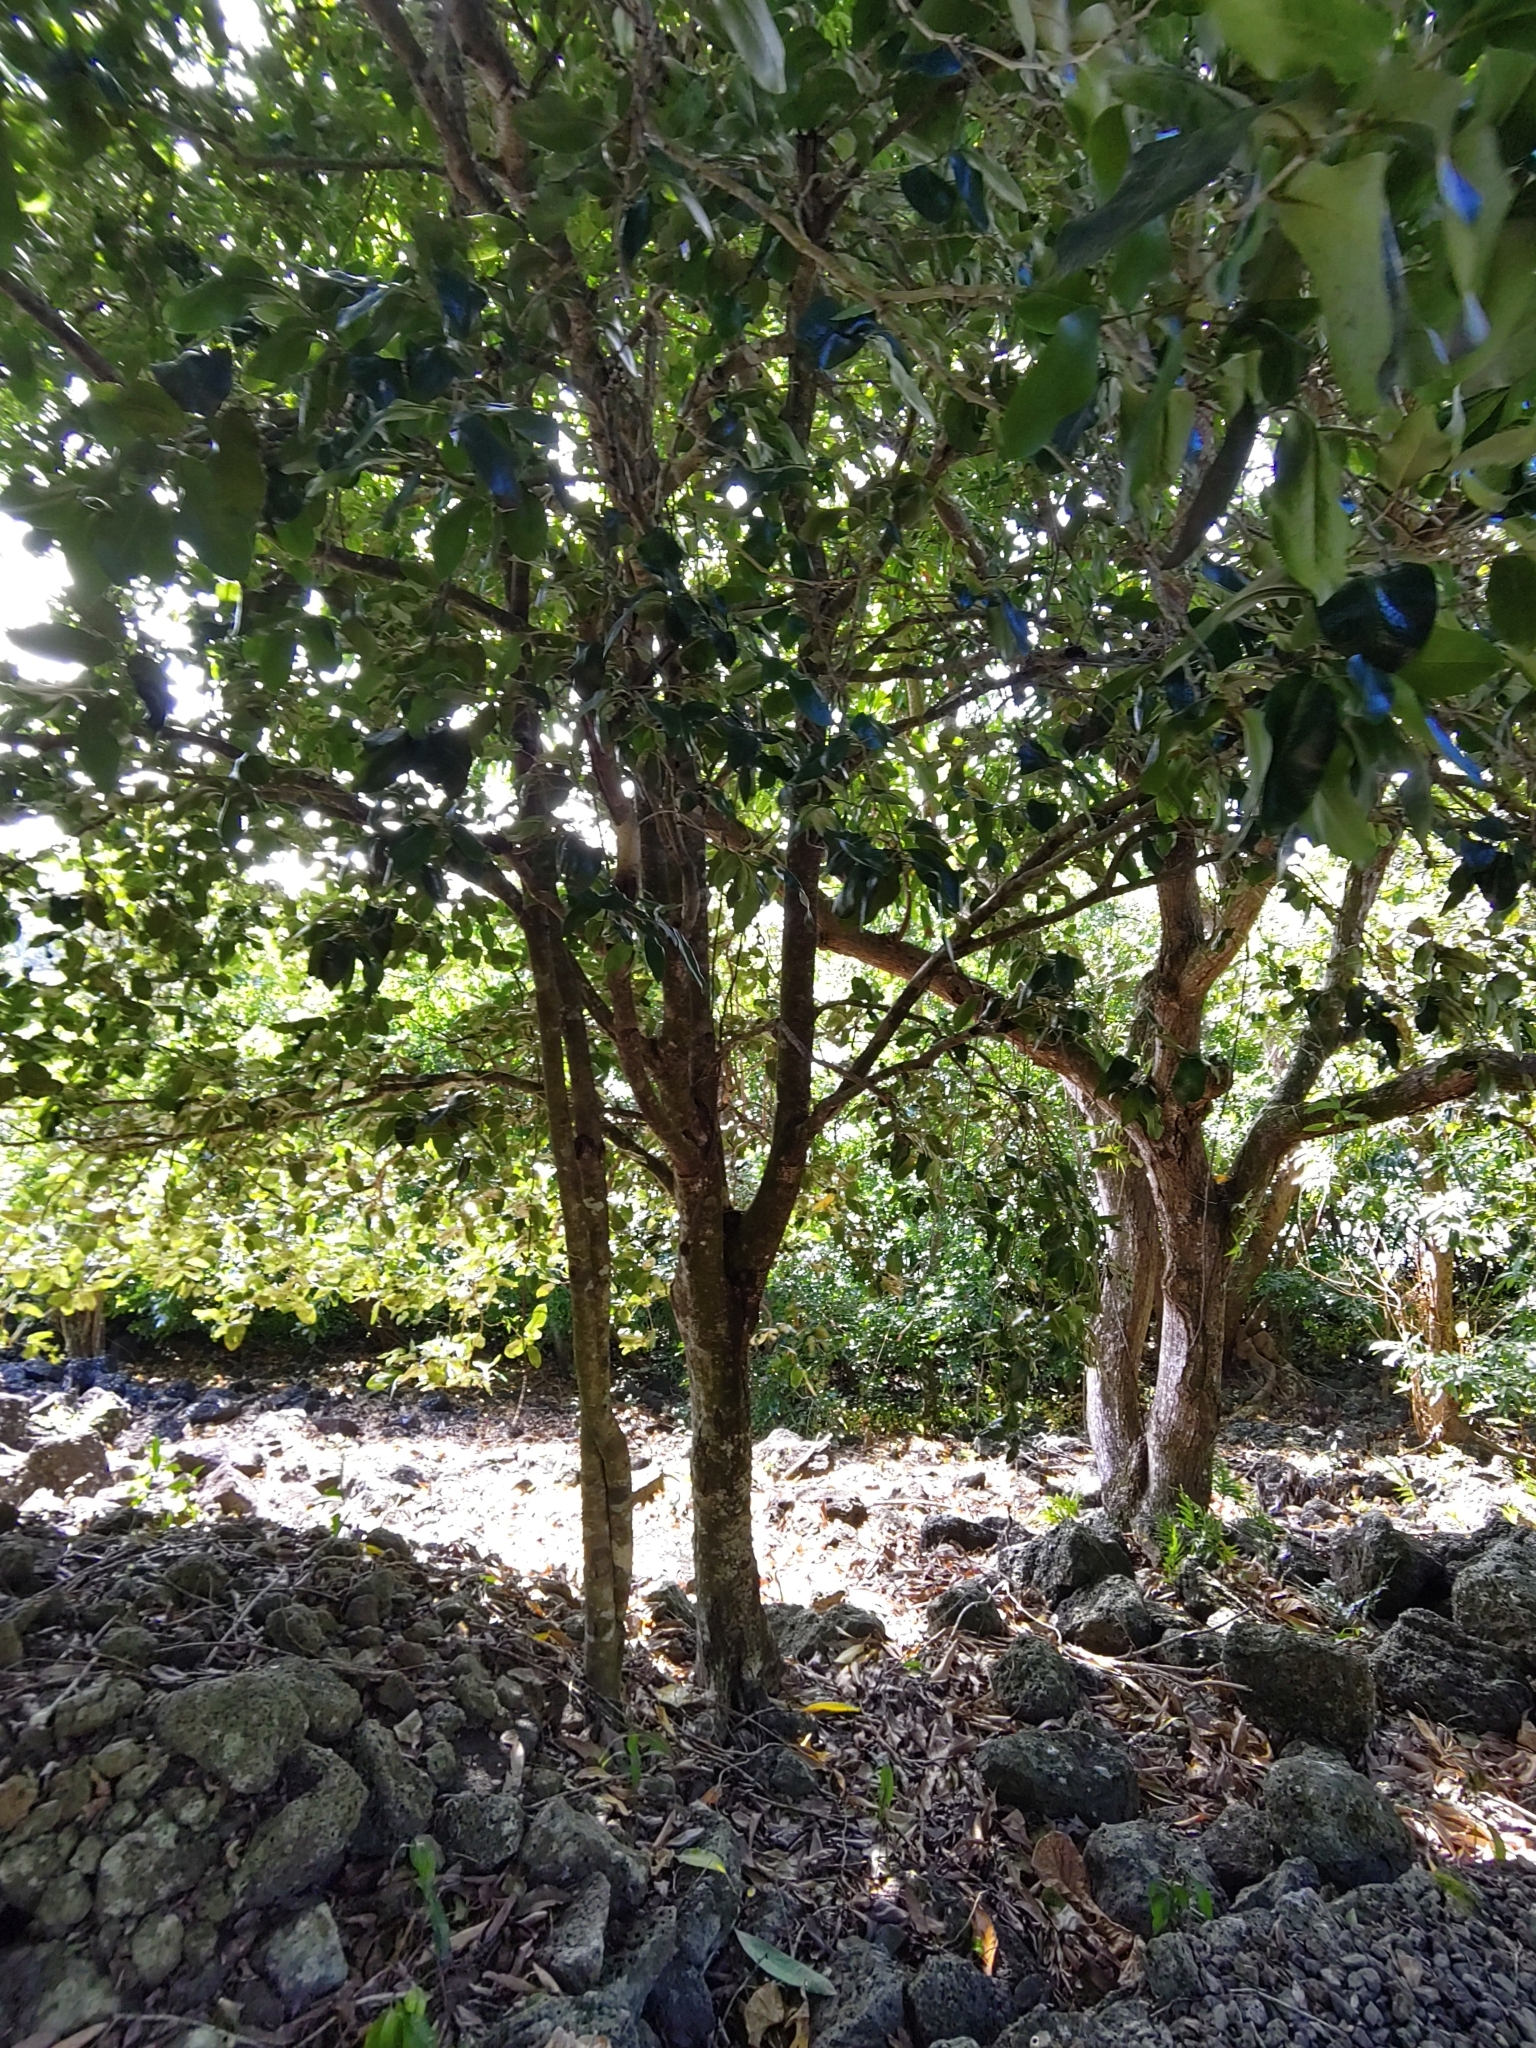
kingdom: Plantae
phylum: Tracheophyta
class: Magnoliopsida
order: Ericales
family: Ebenaceae
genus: Diospyros
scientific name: Diospyros egrettarum
